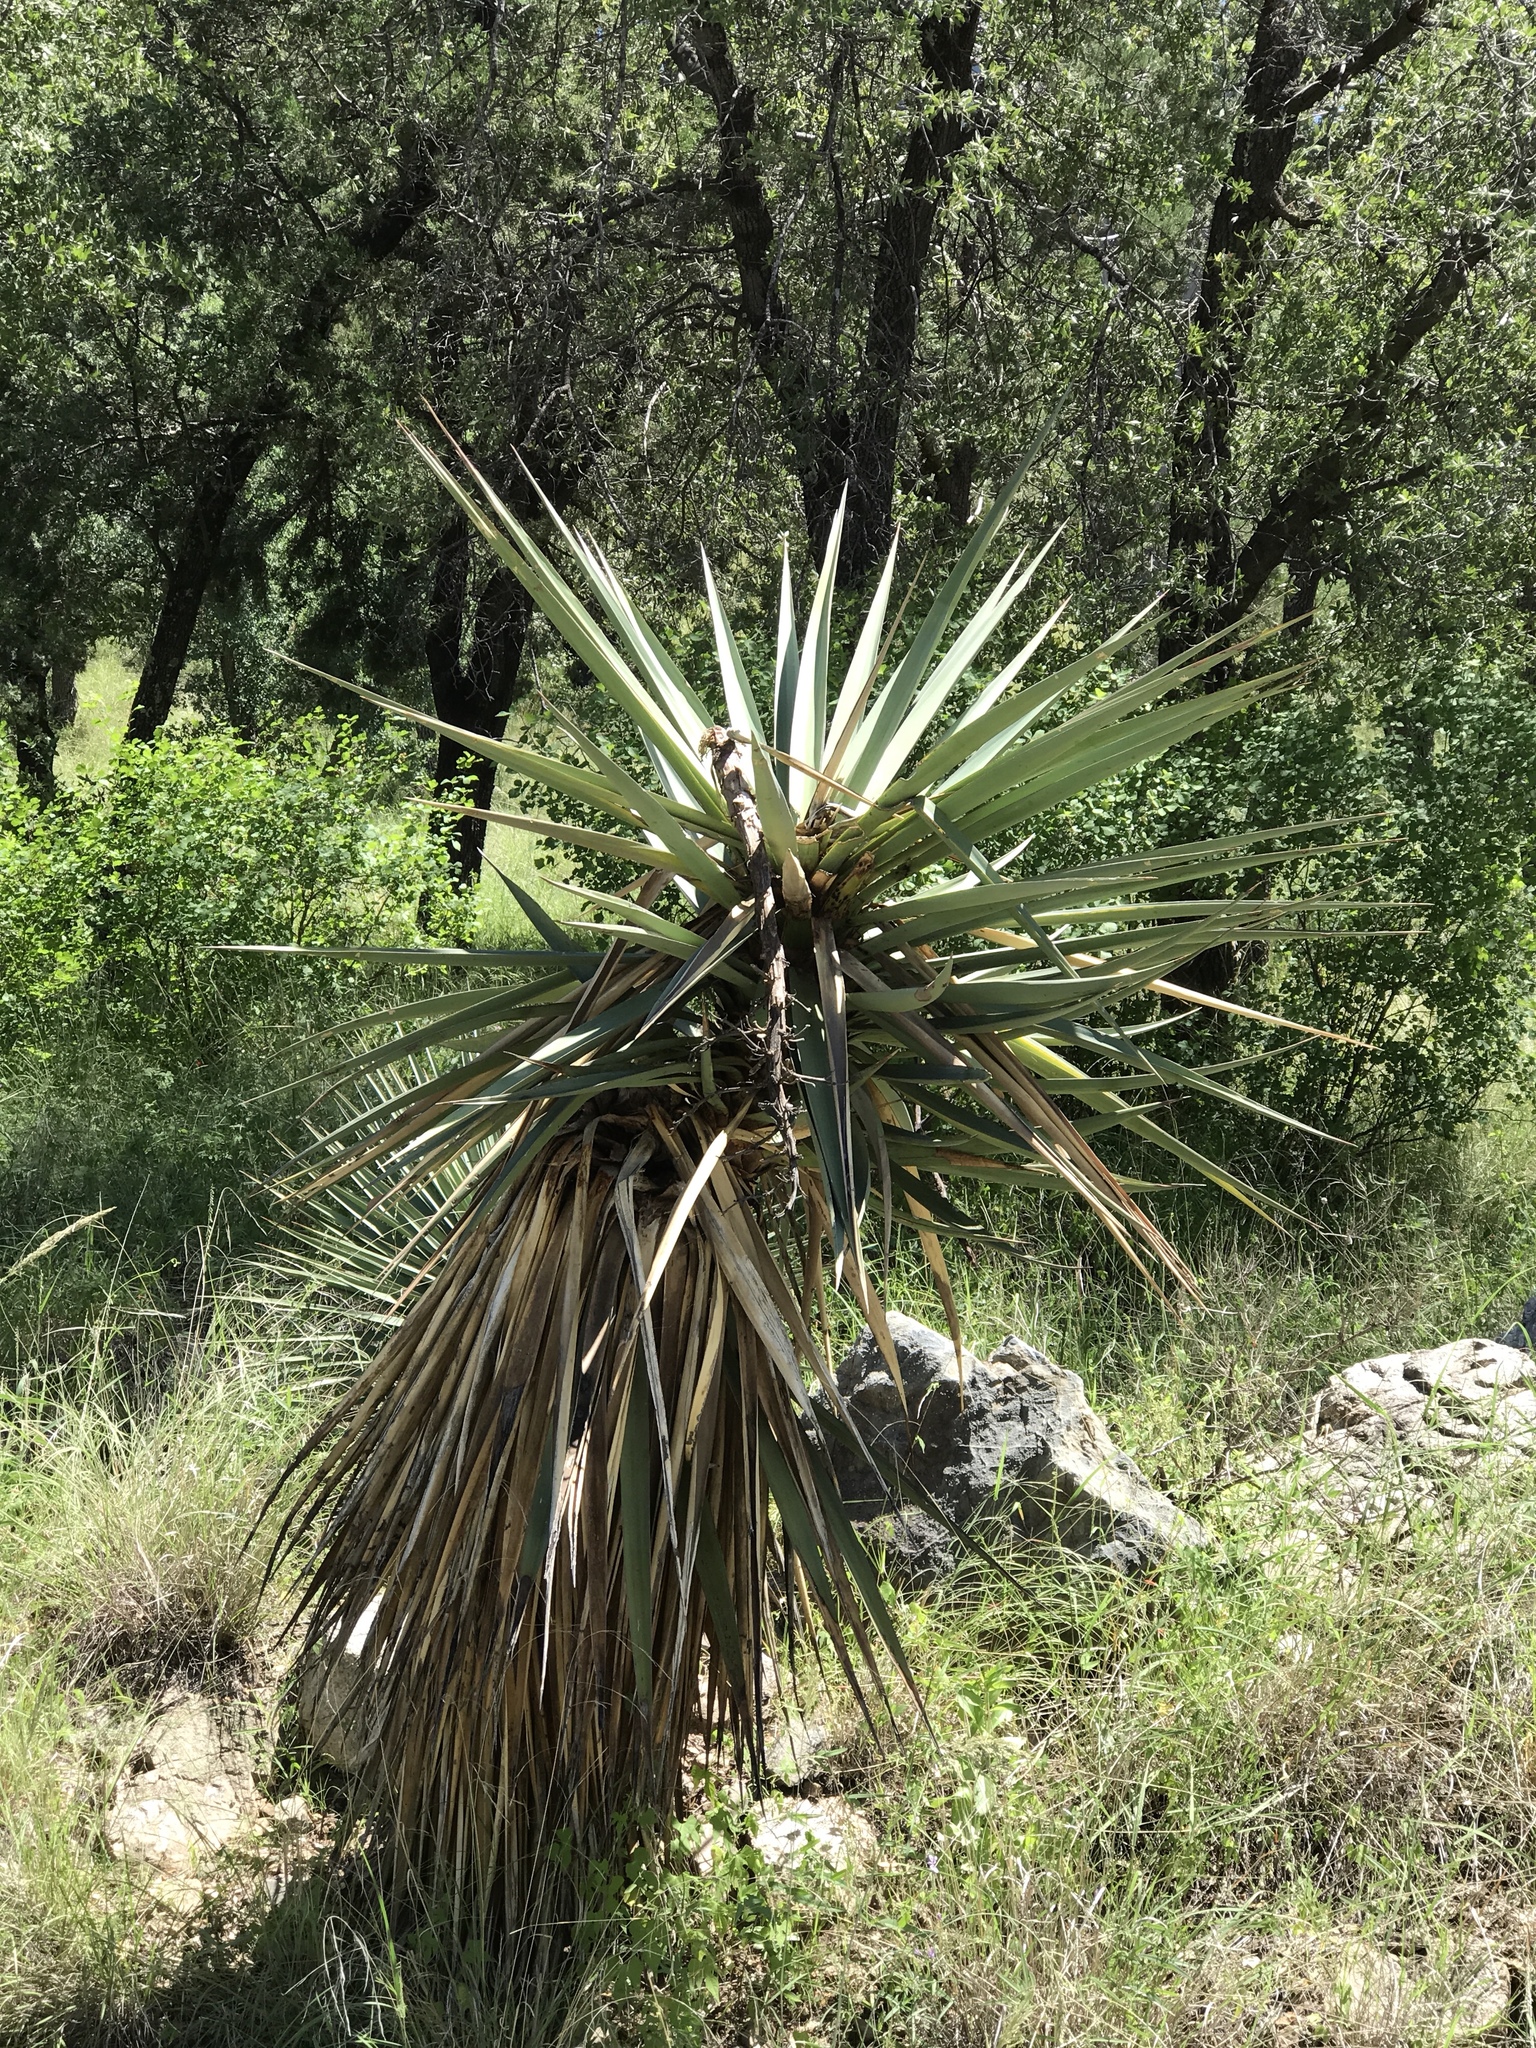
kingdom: Plantae
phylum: Tracheophyta
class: Liliopsida
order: Asparagales
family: Asparagaceae
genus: Yucca
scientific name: Yucca schottii
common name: Hoary yucca
